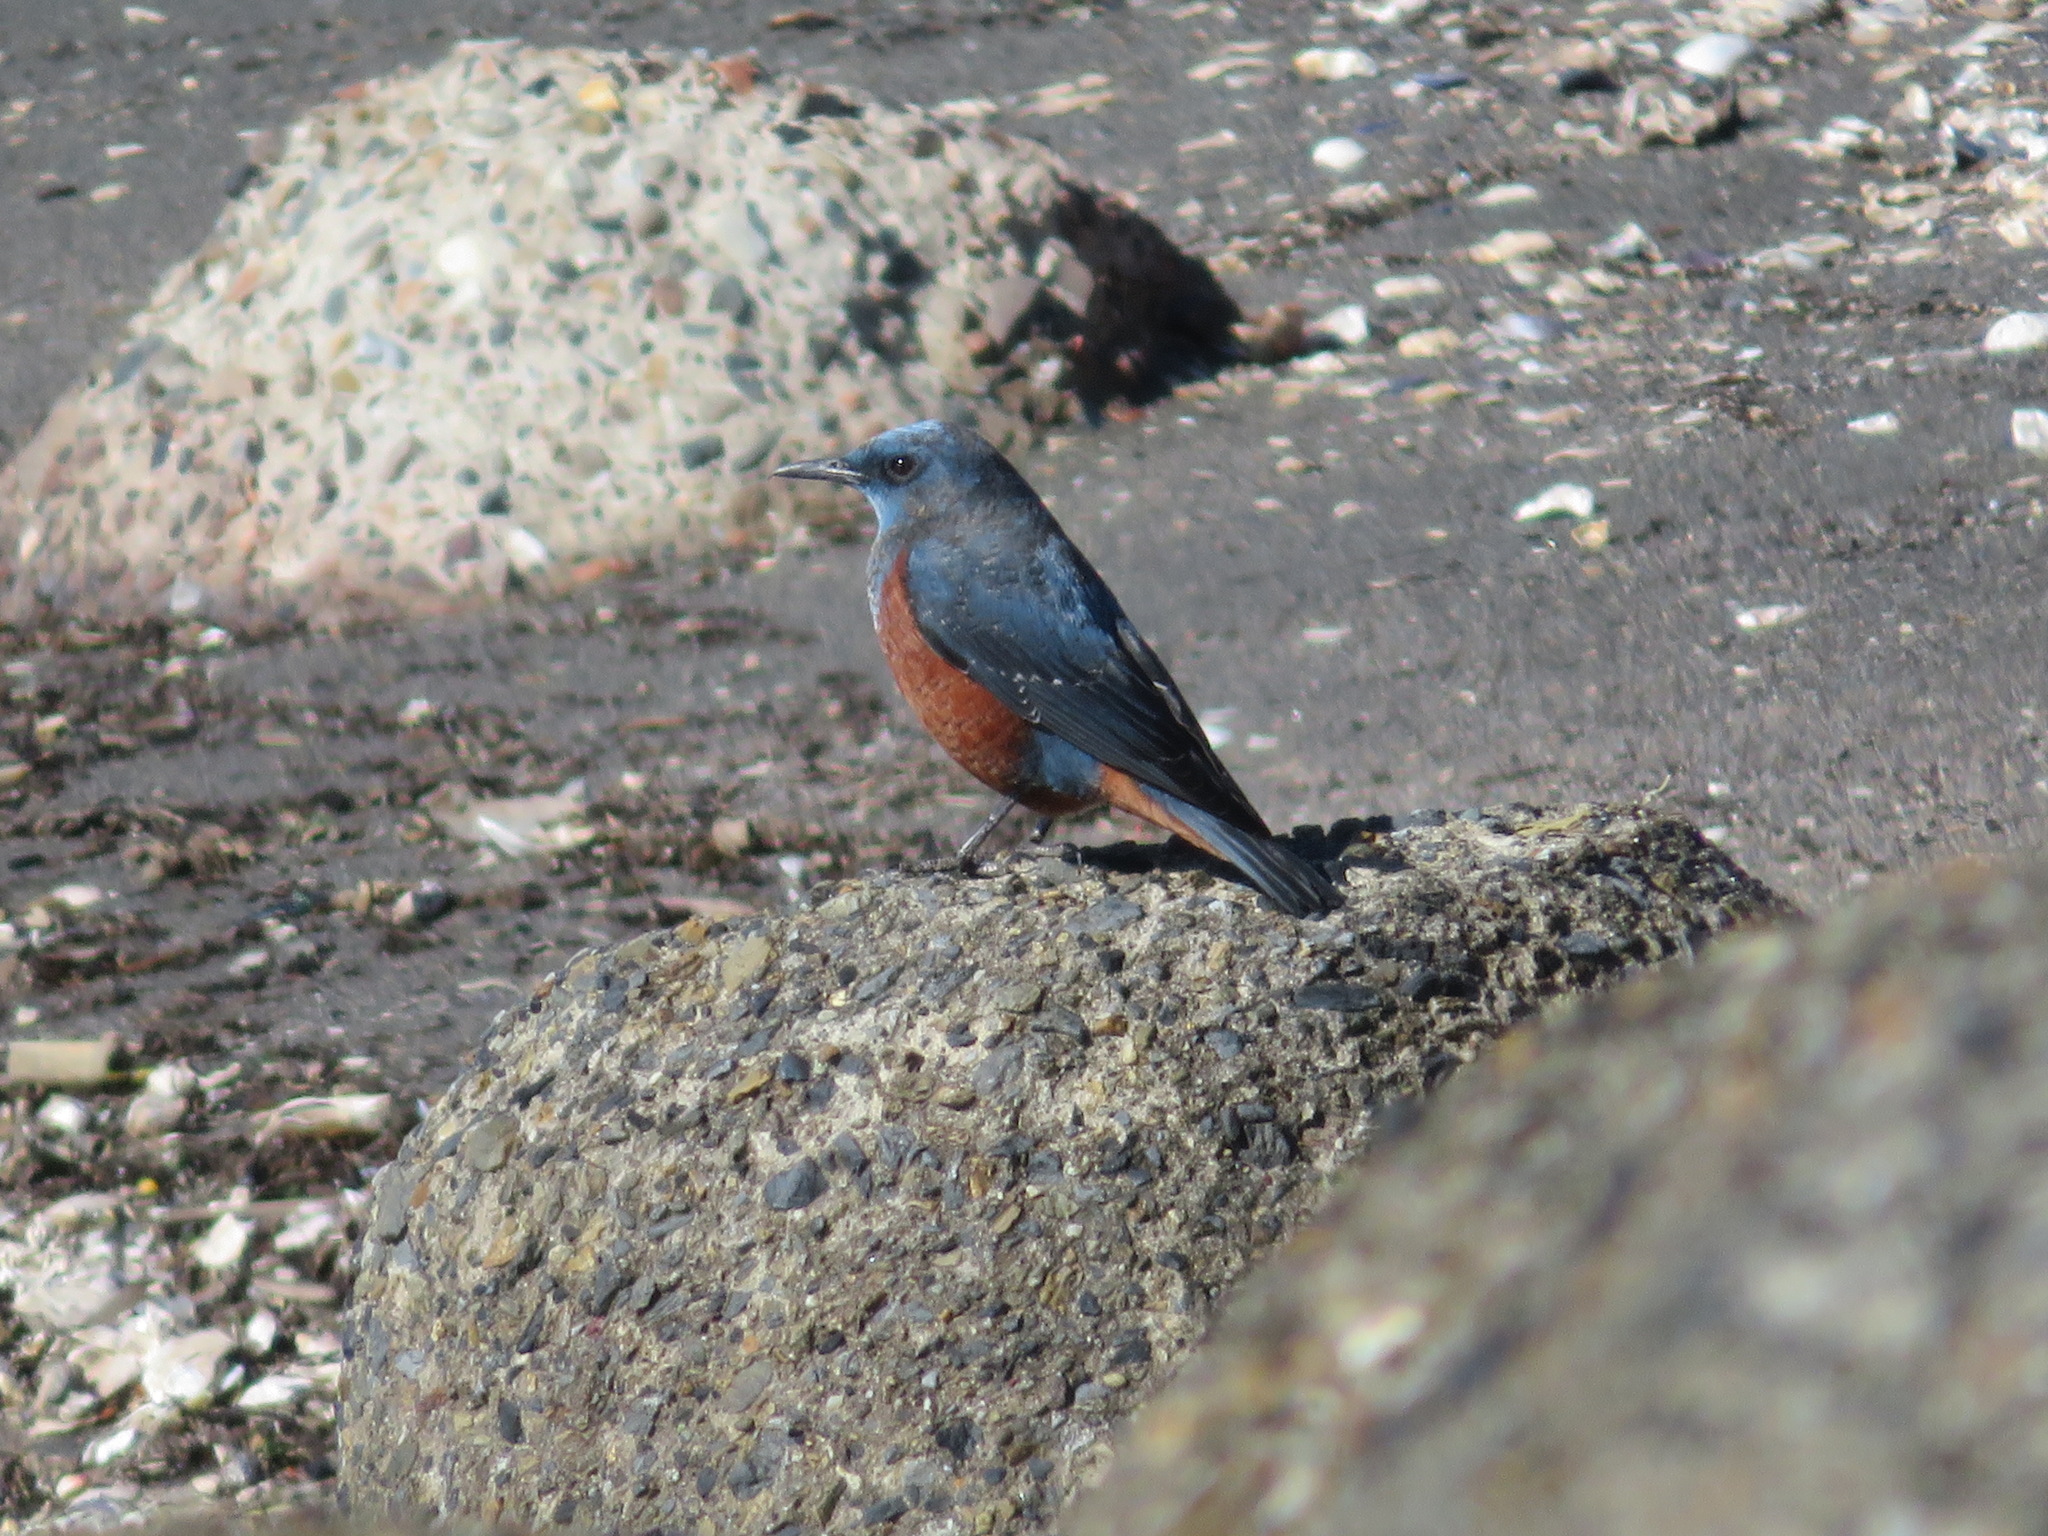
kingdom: Animalia
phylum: Chordata
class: Aves
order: Passeriformes
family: Muscicapidae
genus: Monticola
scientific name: Monticola solitarius
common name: Blue rock thrush
